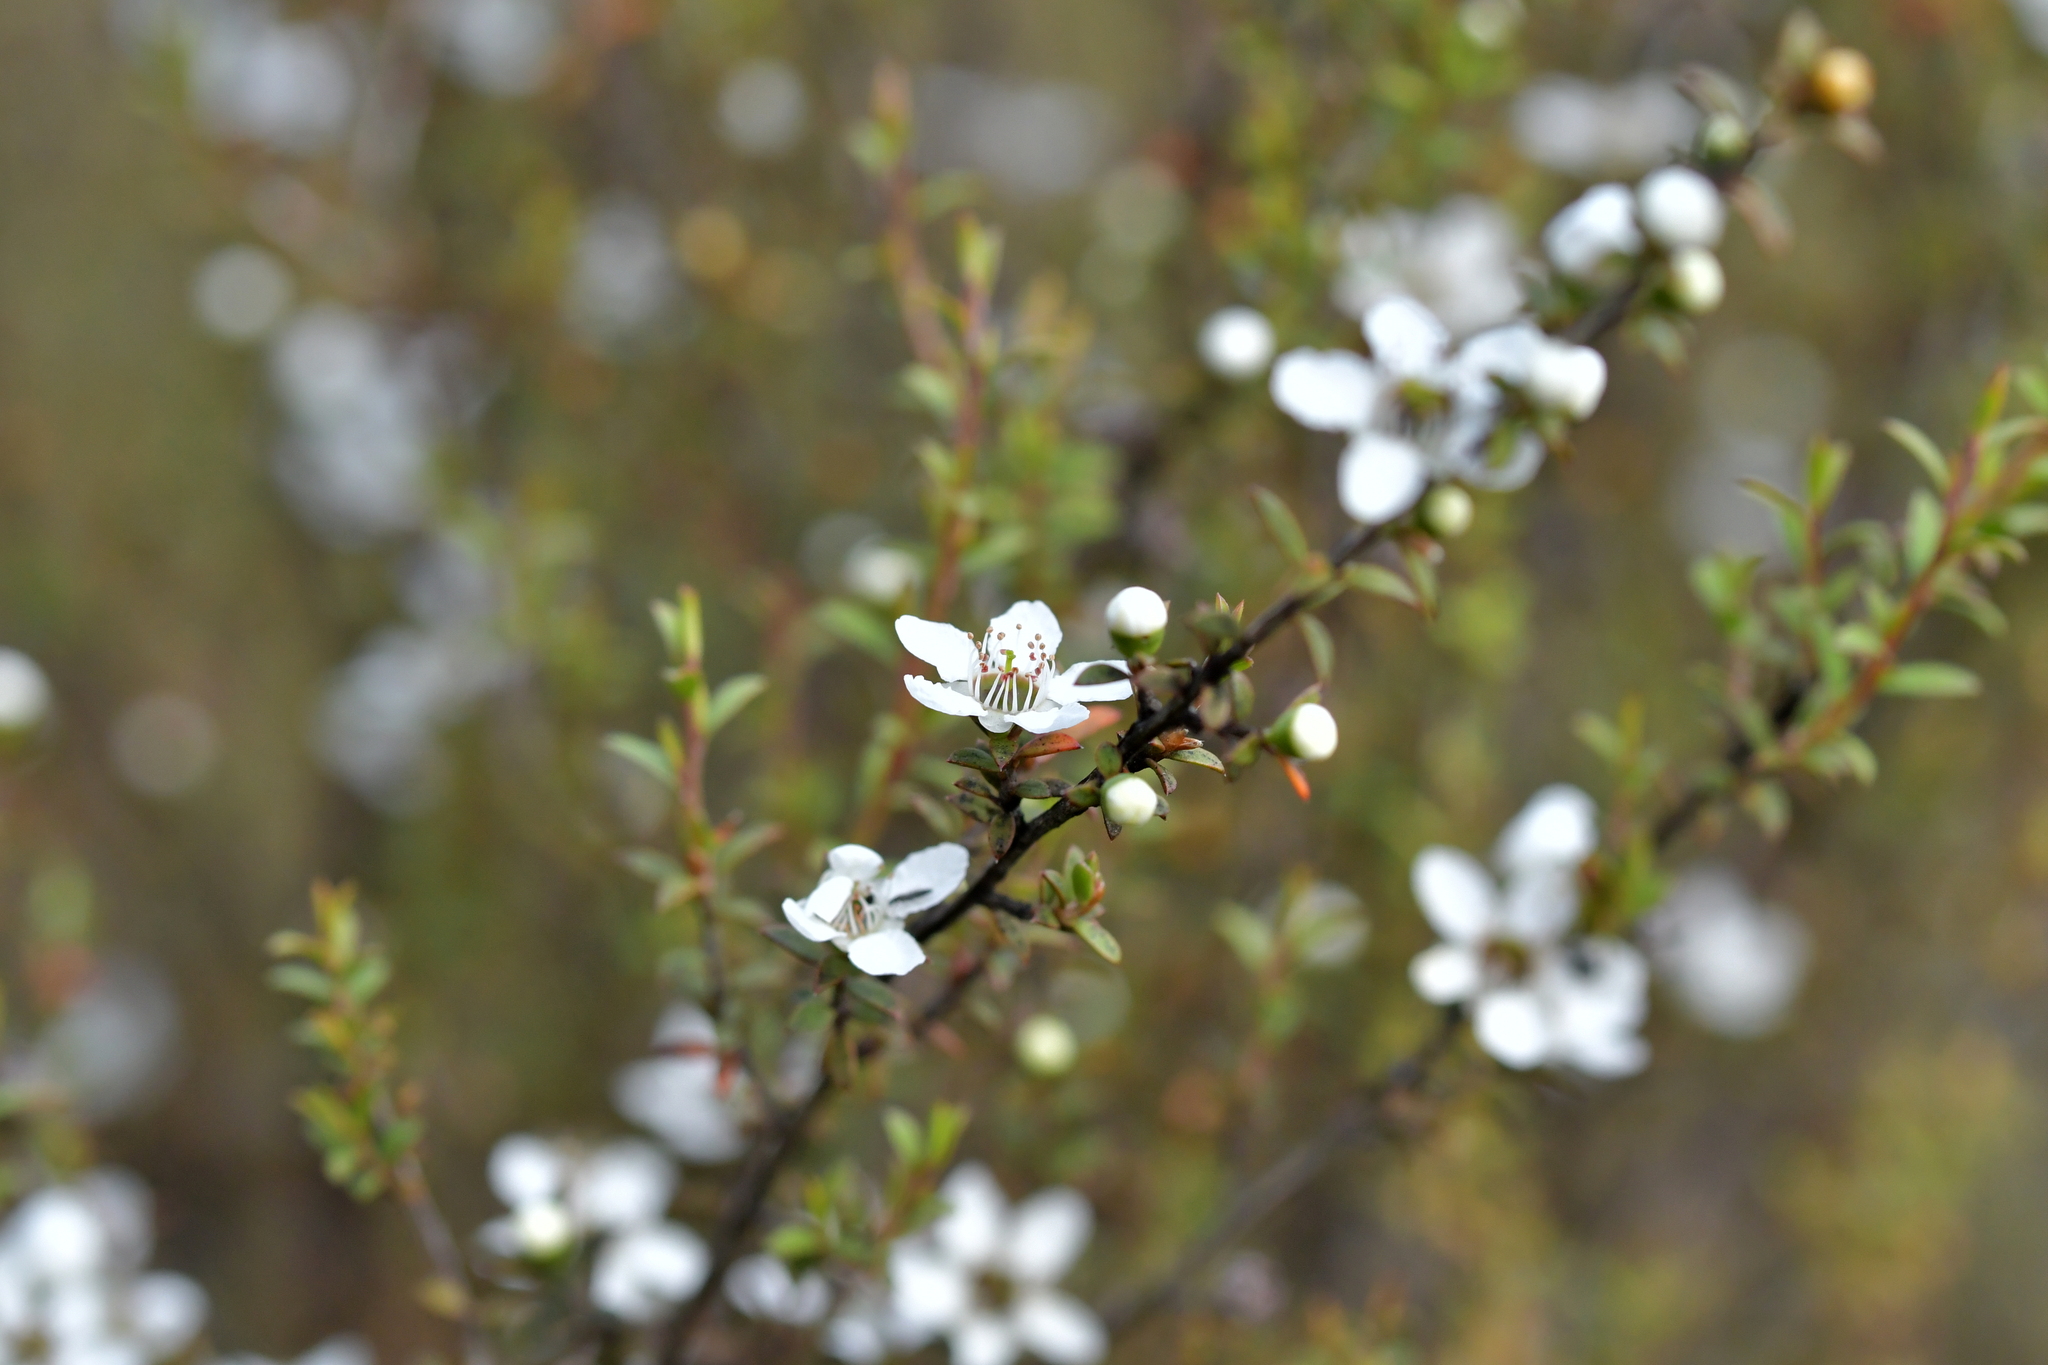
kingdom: Plantae
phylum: Tracheophyta
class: Magnoliopsida
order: Myrtales
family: Myrtaceae
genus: Leptospermum
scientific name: Leptospermum scoparium
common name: Broom tea-tree
